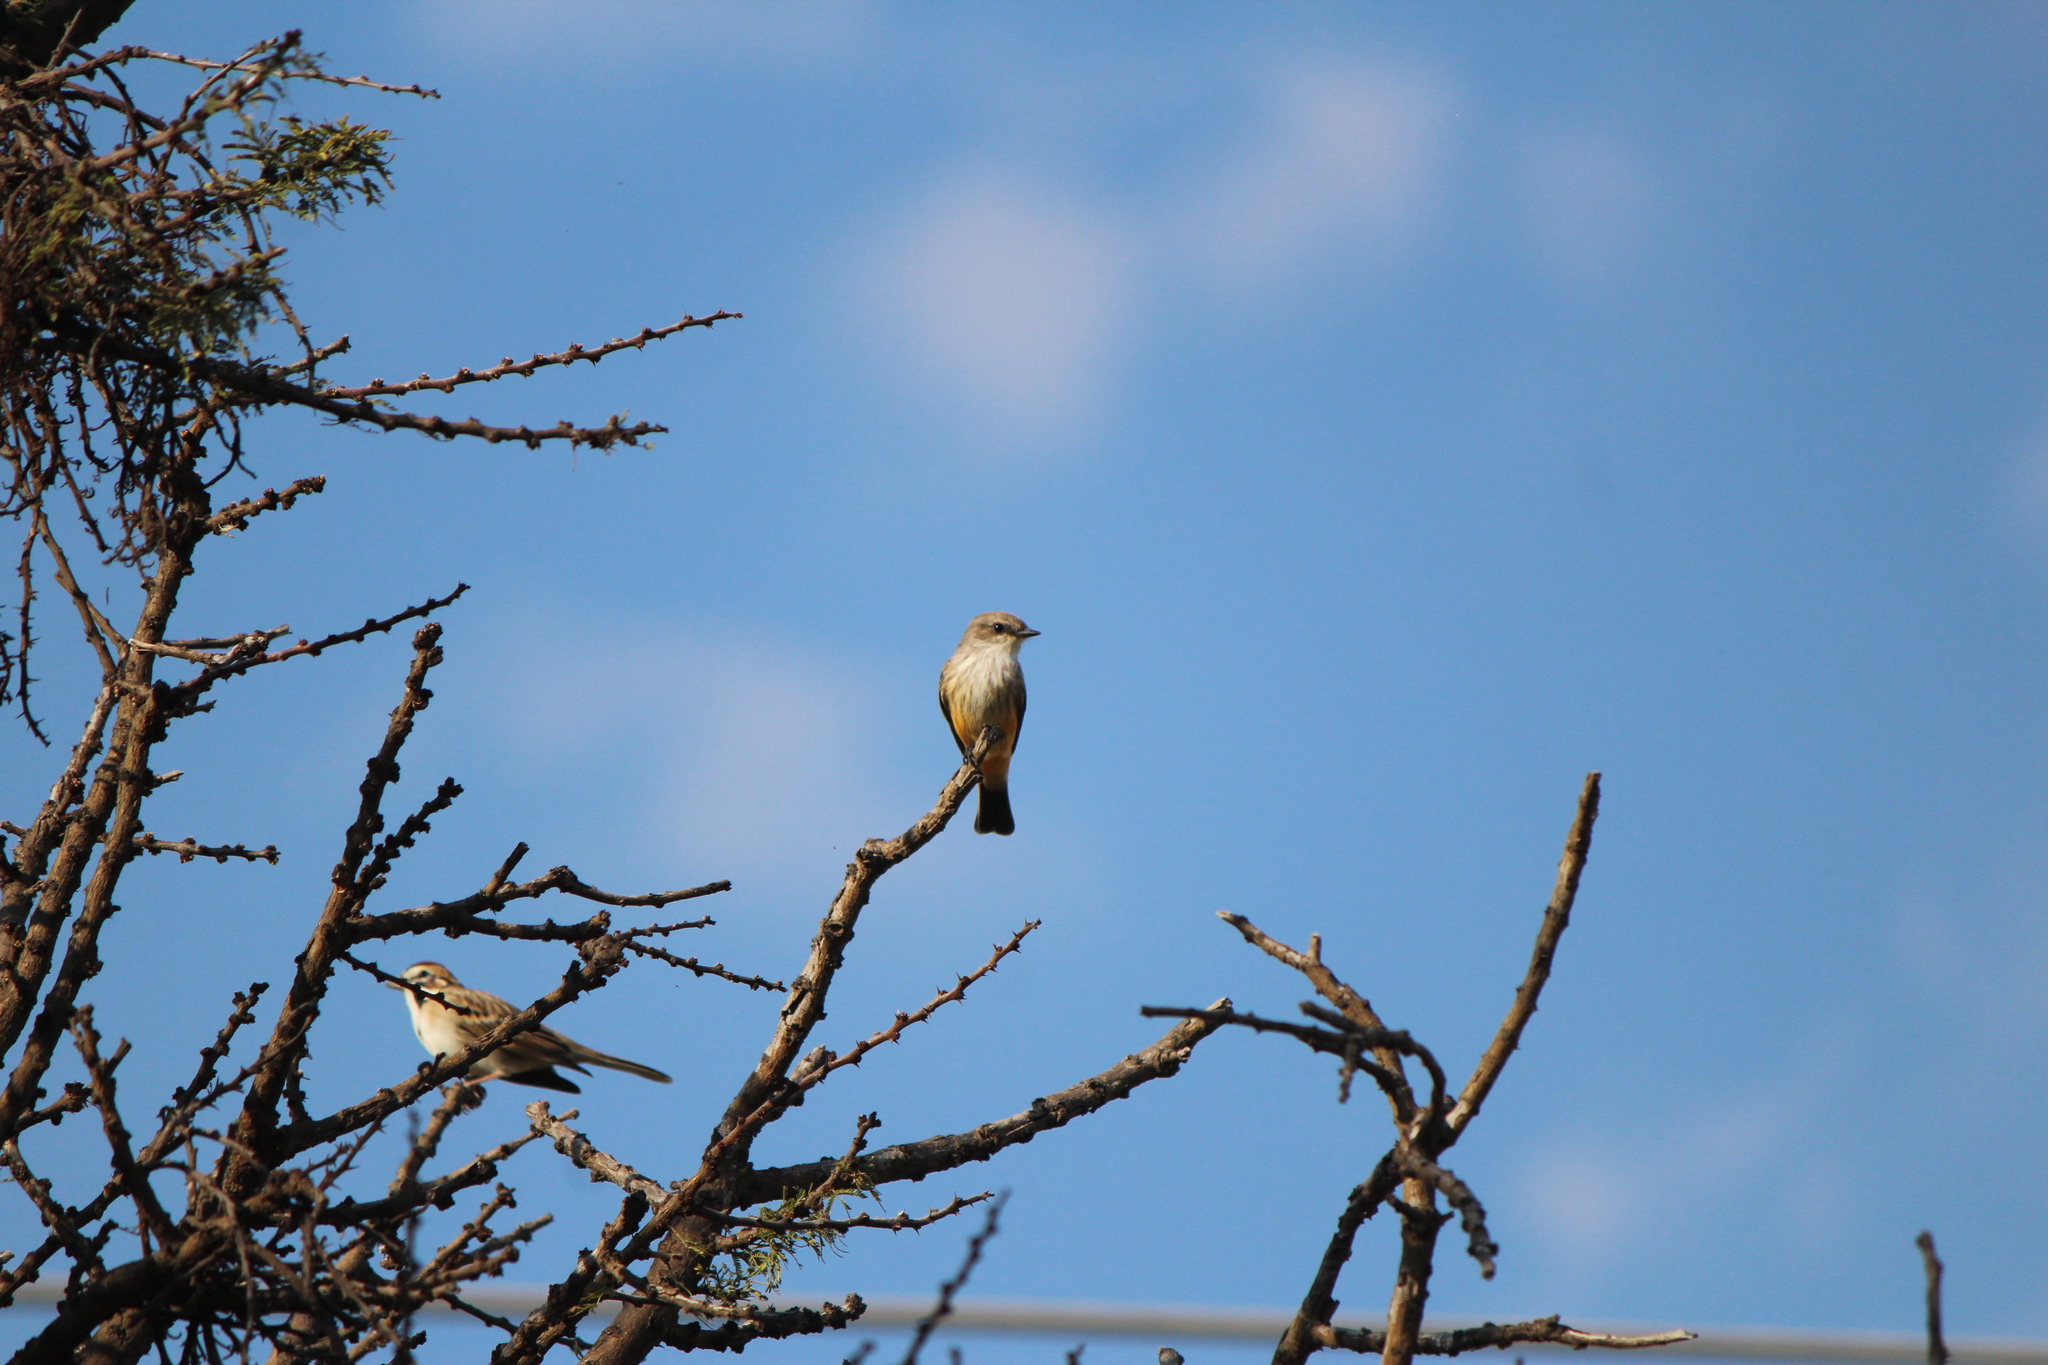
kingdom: Animalia
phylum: Chordata
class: Aves
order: Passeriformes
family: Tyrannidae
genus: Pyrocephalus
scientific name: Pyrocephalus rubinus
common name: Vermilion flycatcher
